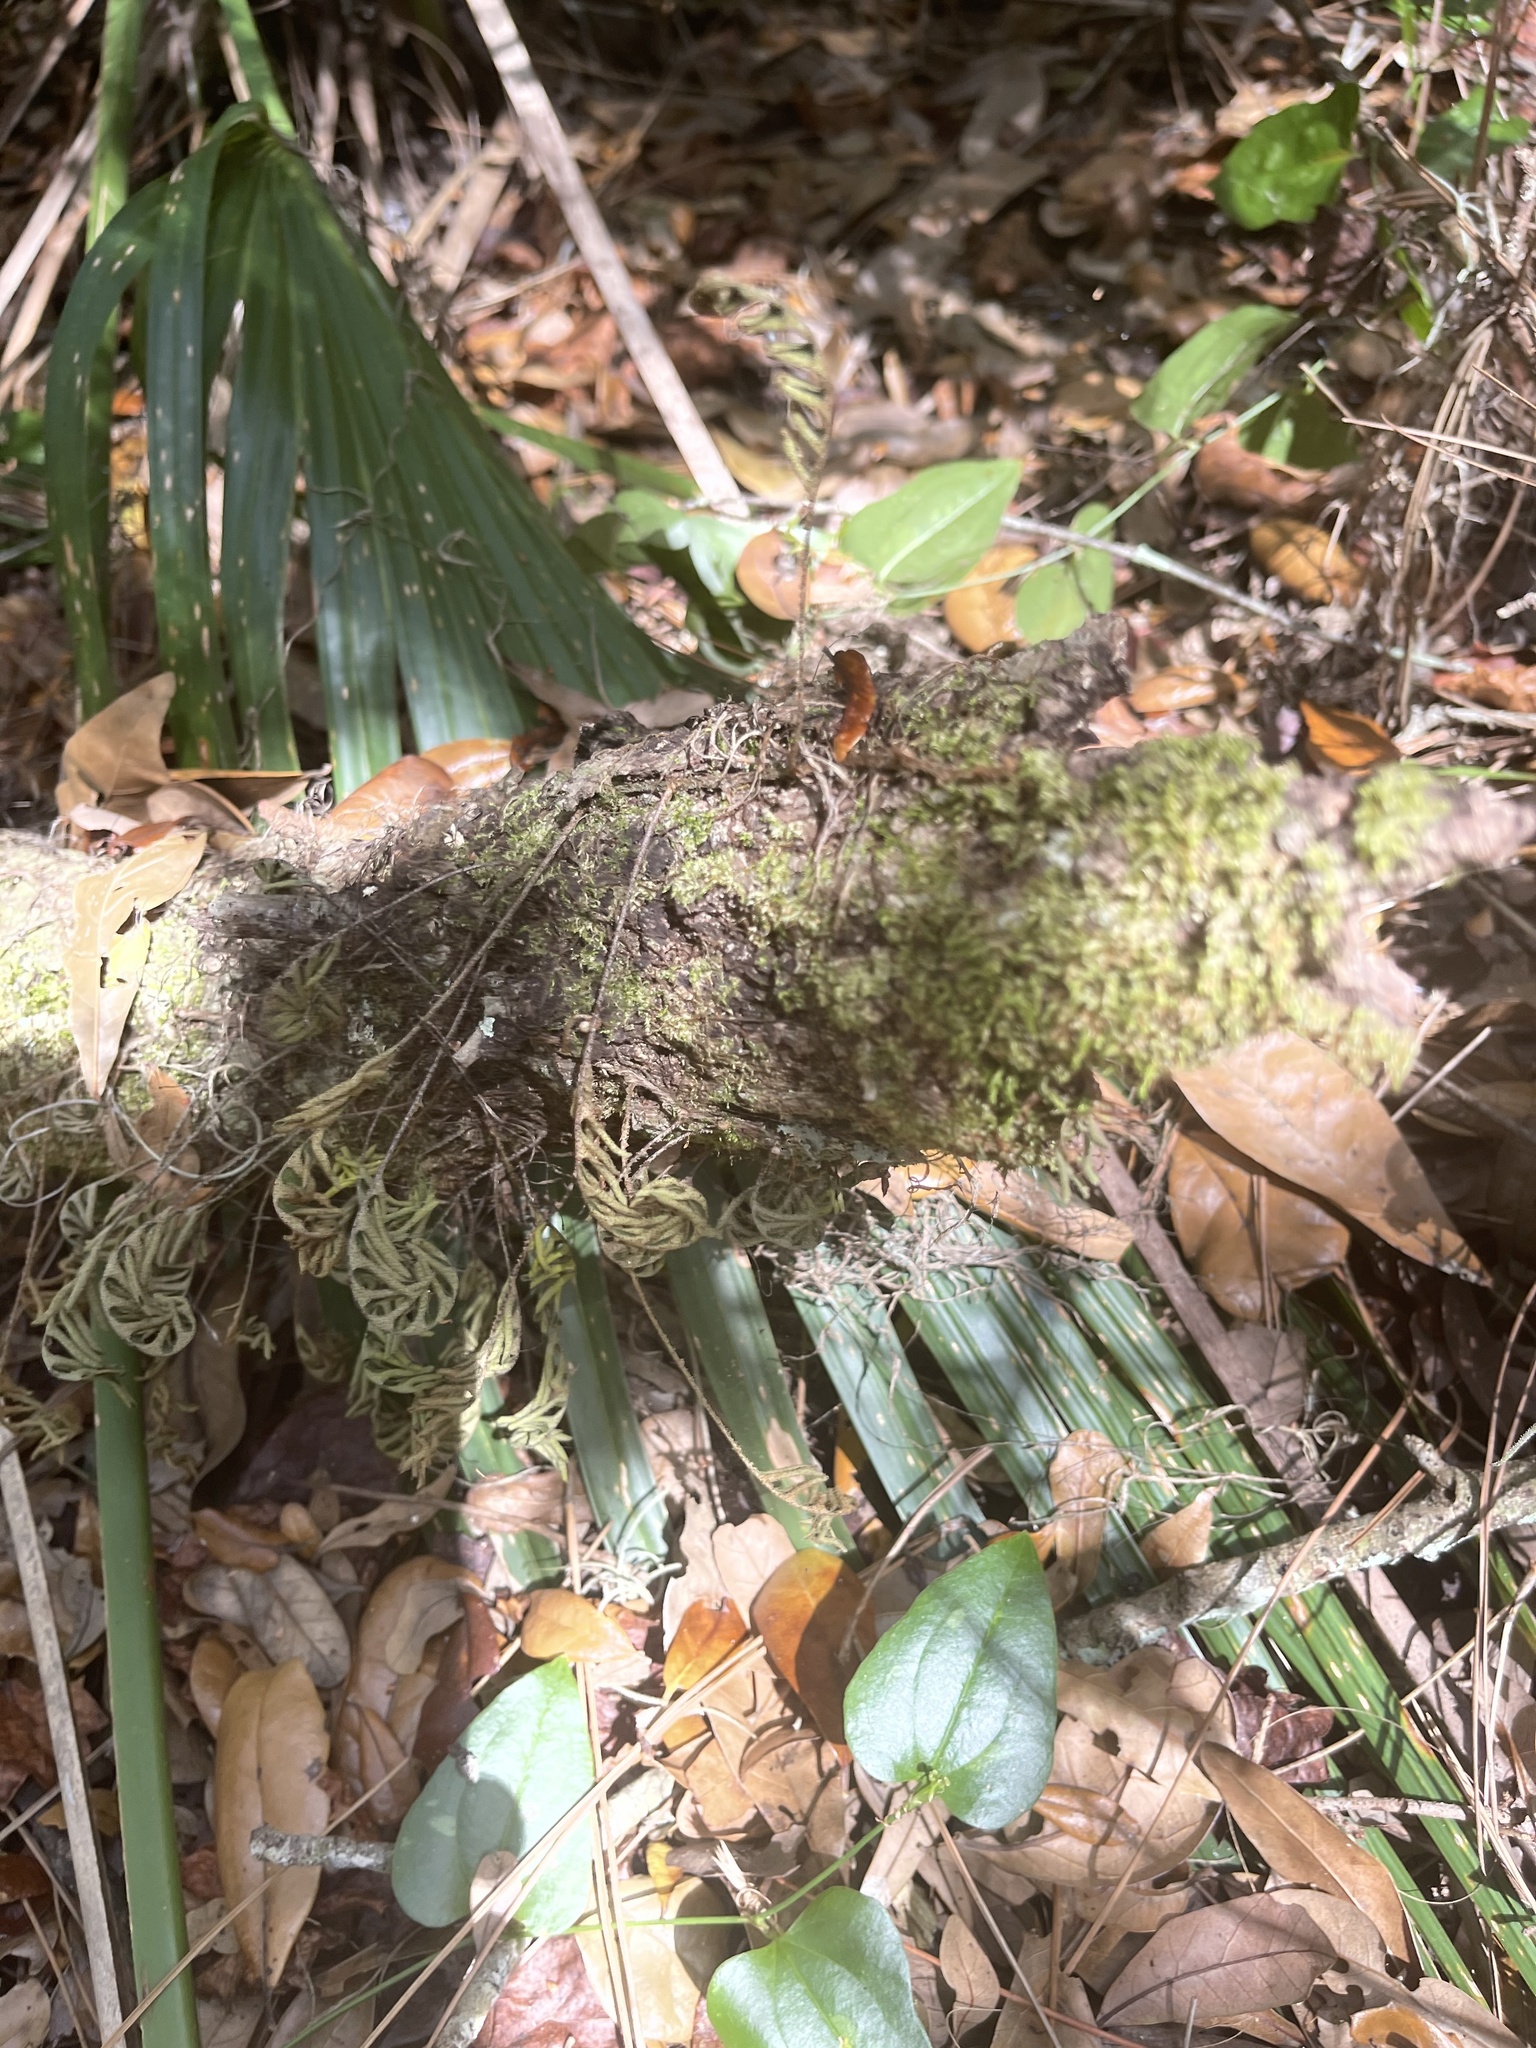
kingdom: Plantae
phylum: Tracheophyta
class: Polypodiopsida
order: Polypodiales
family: Polypodiaceae
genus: Pleopeltis
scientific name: Pleopeltis michauxiana
